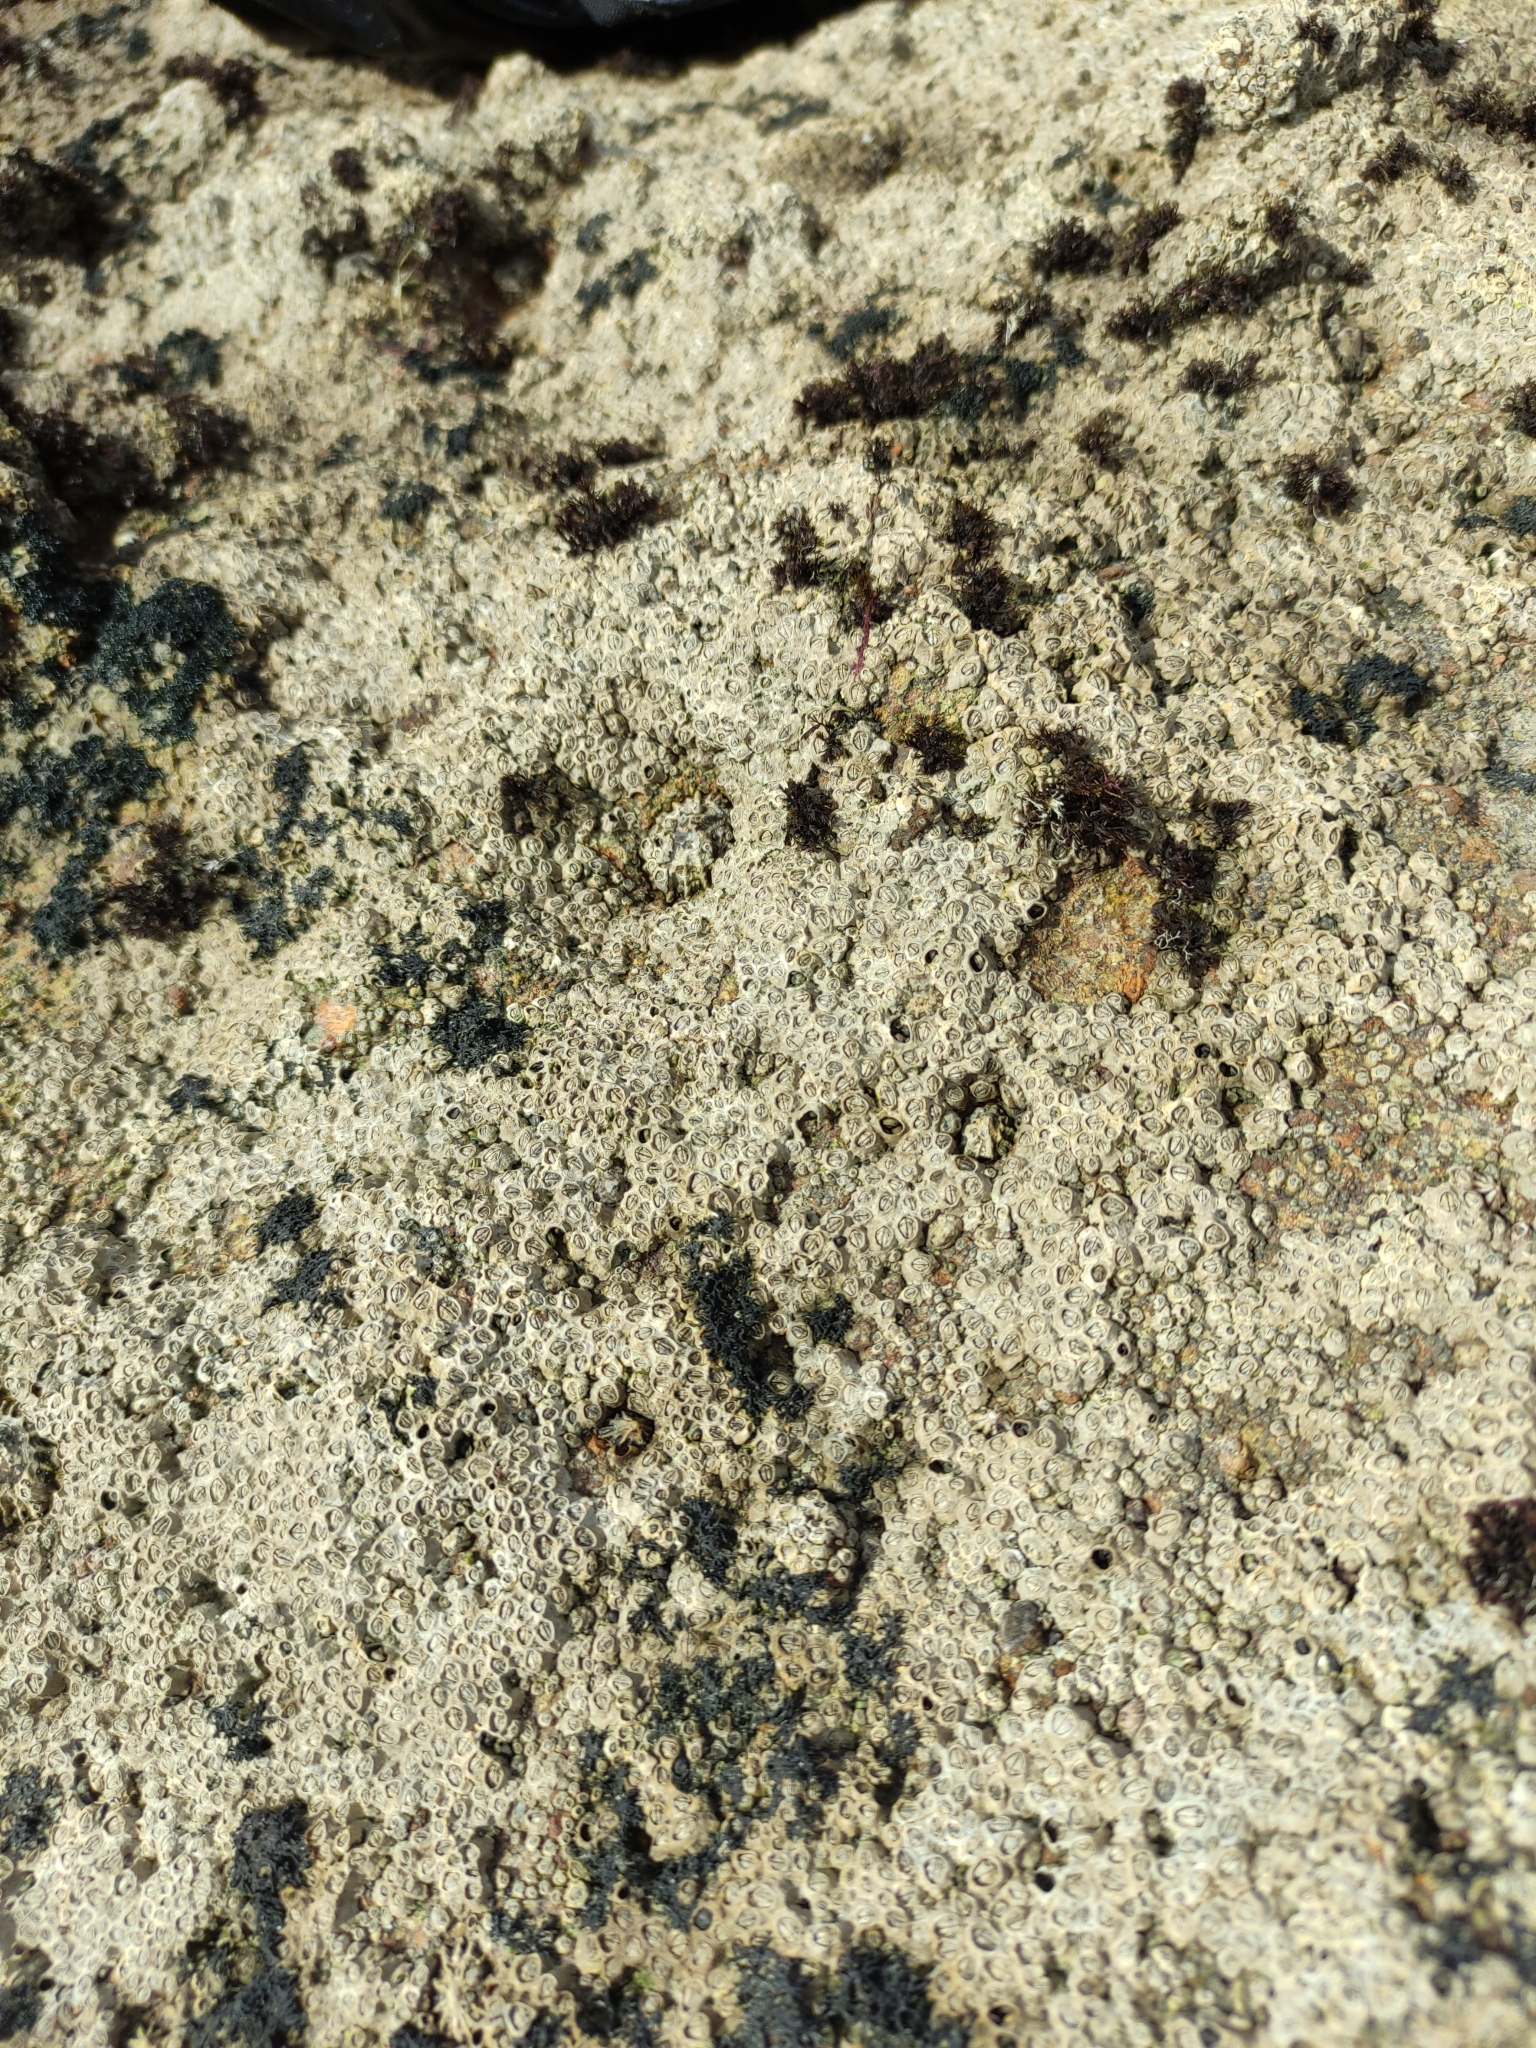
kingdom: Animalia
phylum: Arthropoda
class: Maxillopoda
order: Sessilia
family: Chthamalidae
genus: Chamaesipho
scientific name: Chamaesipho columna
